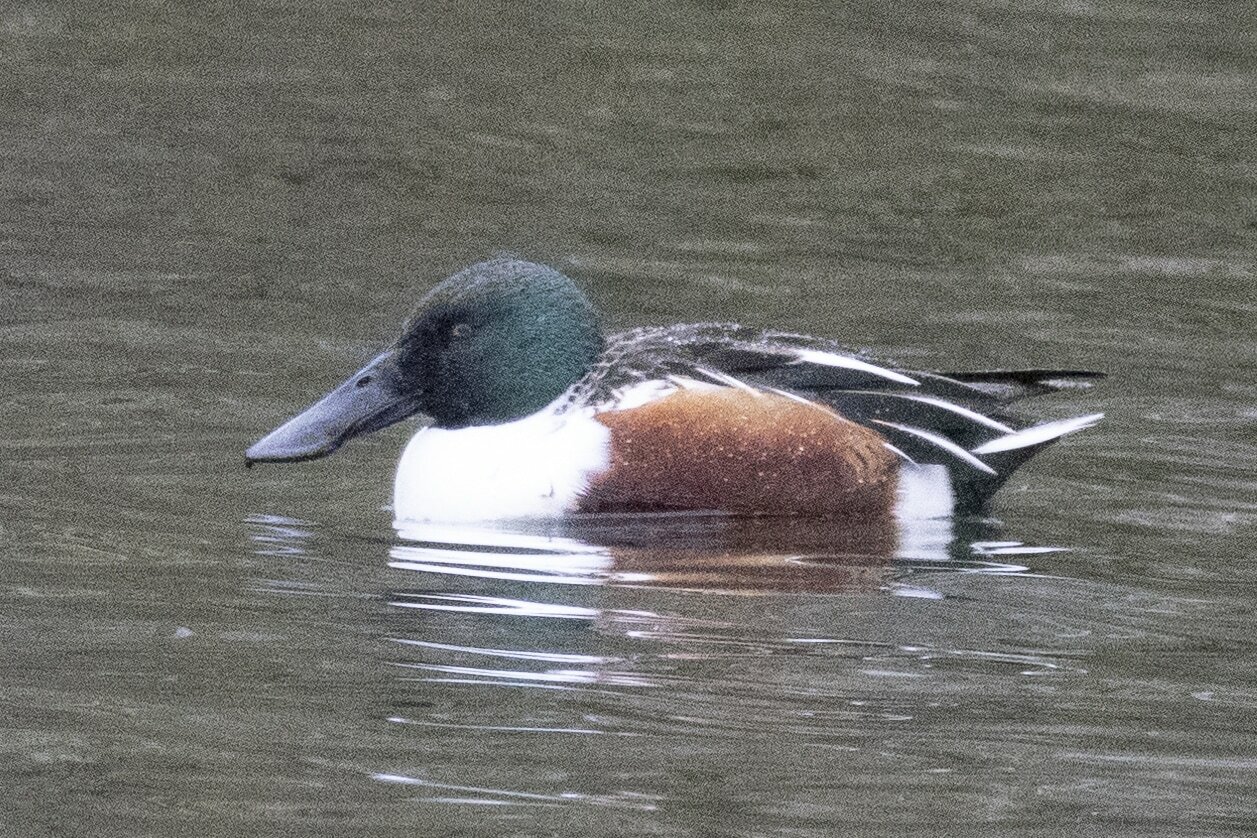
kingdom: Animalia
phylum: Chordata
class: Aves
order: Anseriformes
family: Anatidae
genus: Spatula
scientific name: Spatula clypeata
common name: Northern shoveler
